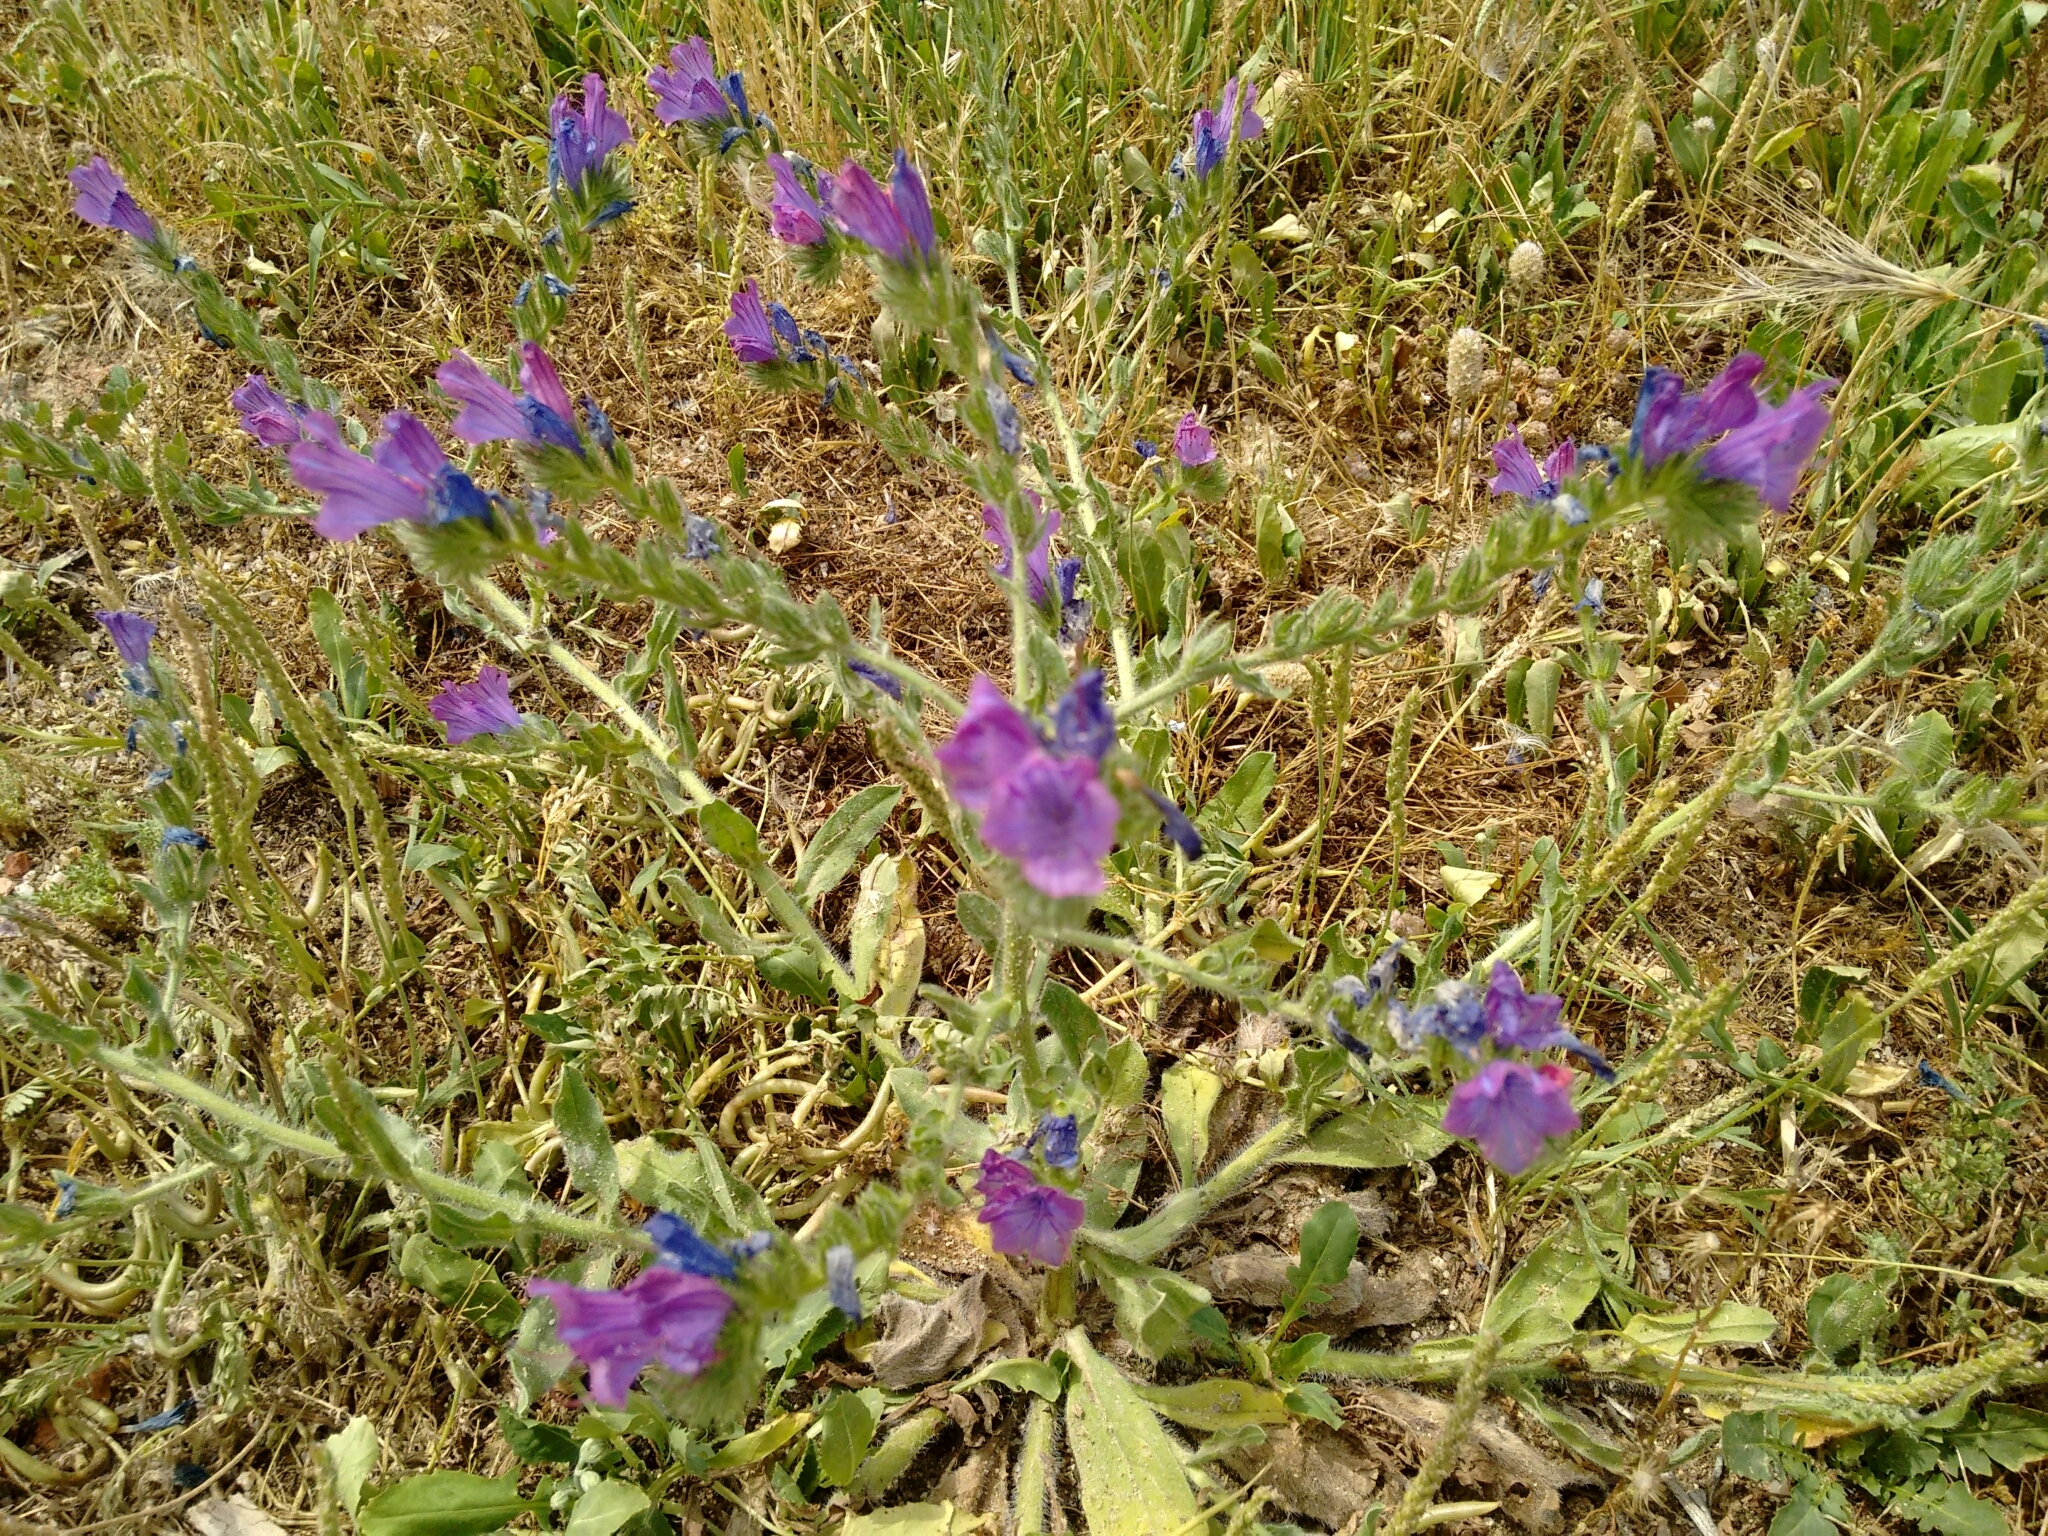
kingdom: Plantae
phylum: Tracheophyta
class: Magnoliopsida
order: Boraginales
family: Boraginaceae
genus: Echium
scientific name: Echium plantagineum
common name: Purple viper's-bugloss
